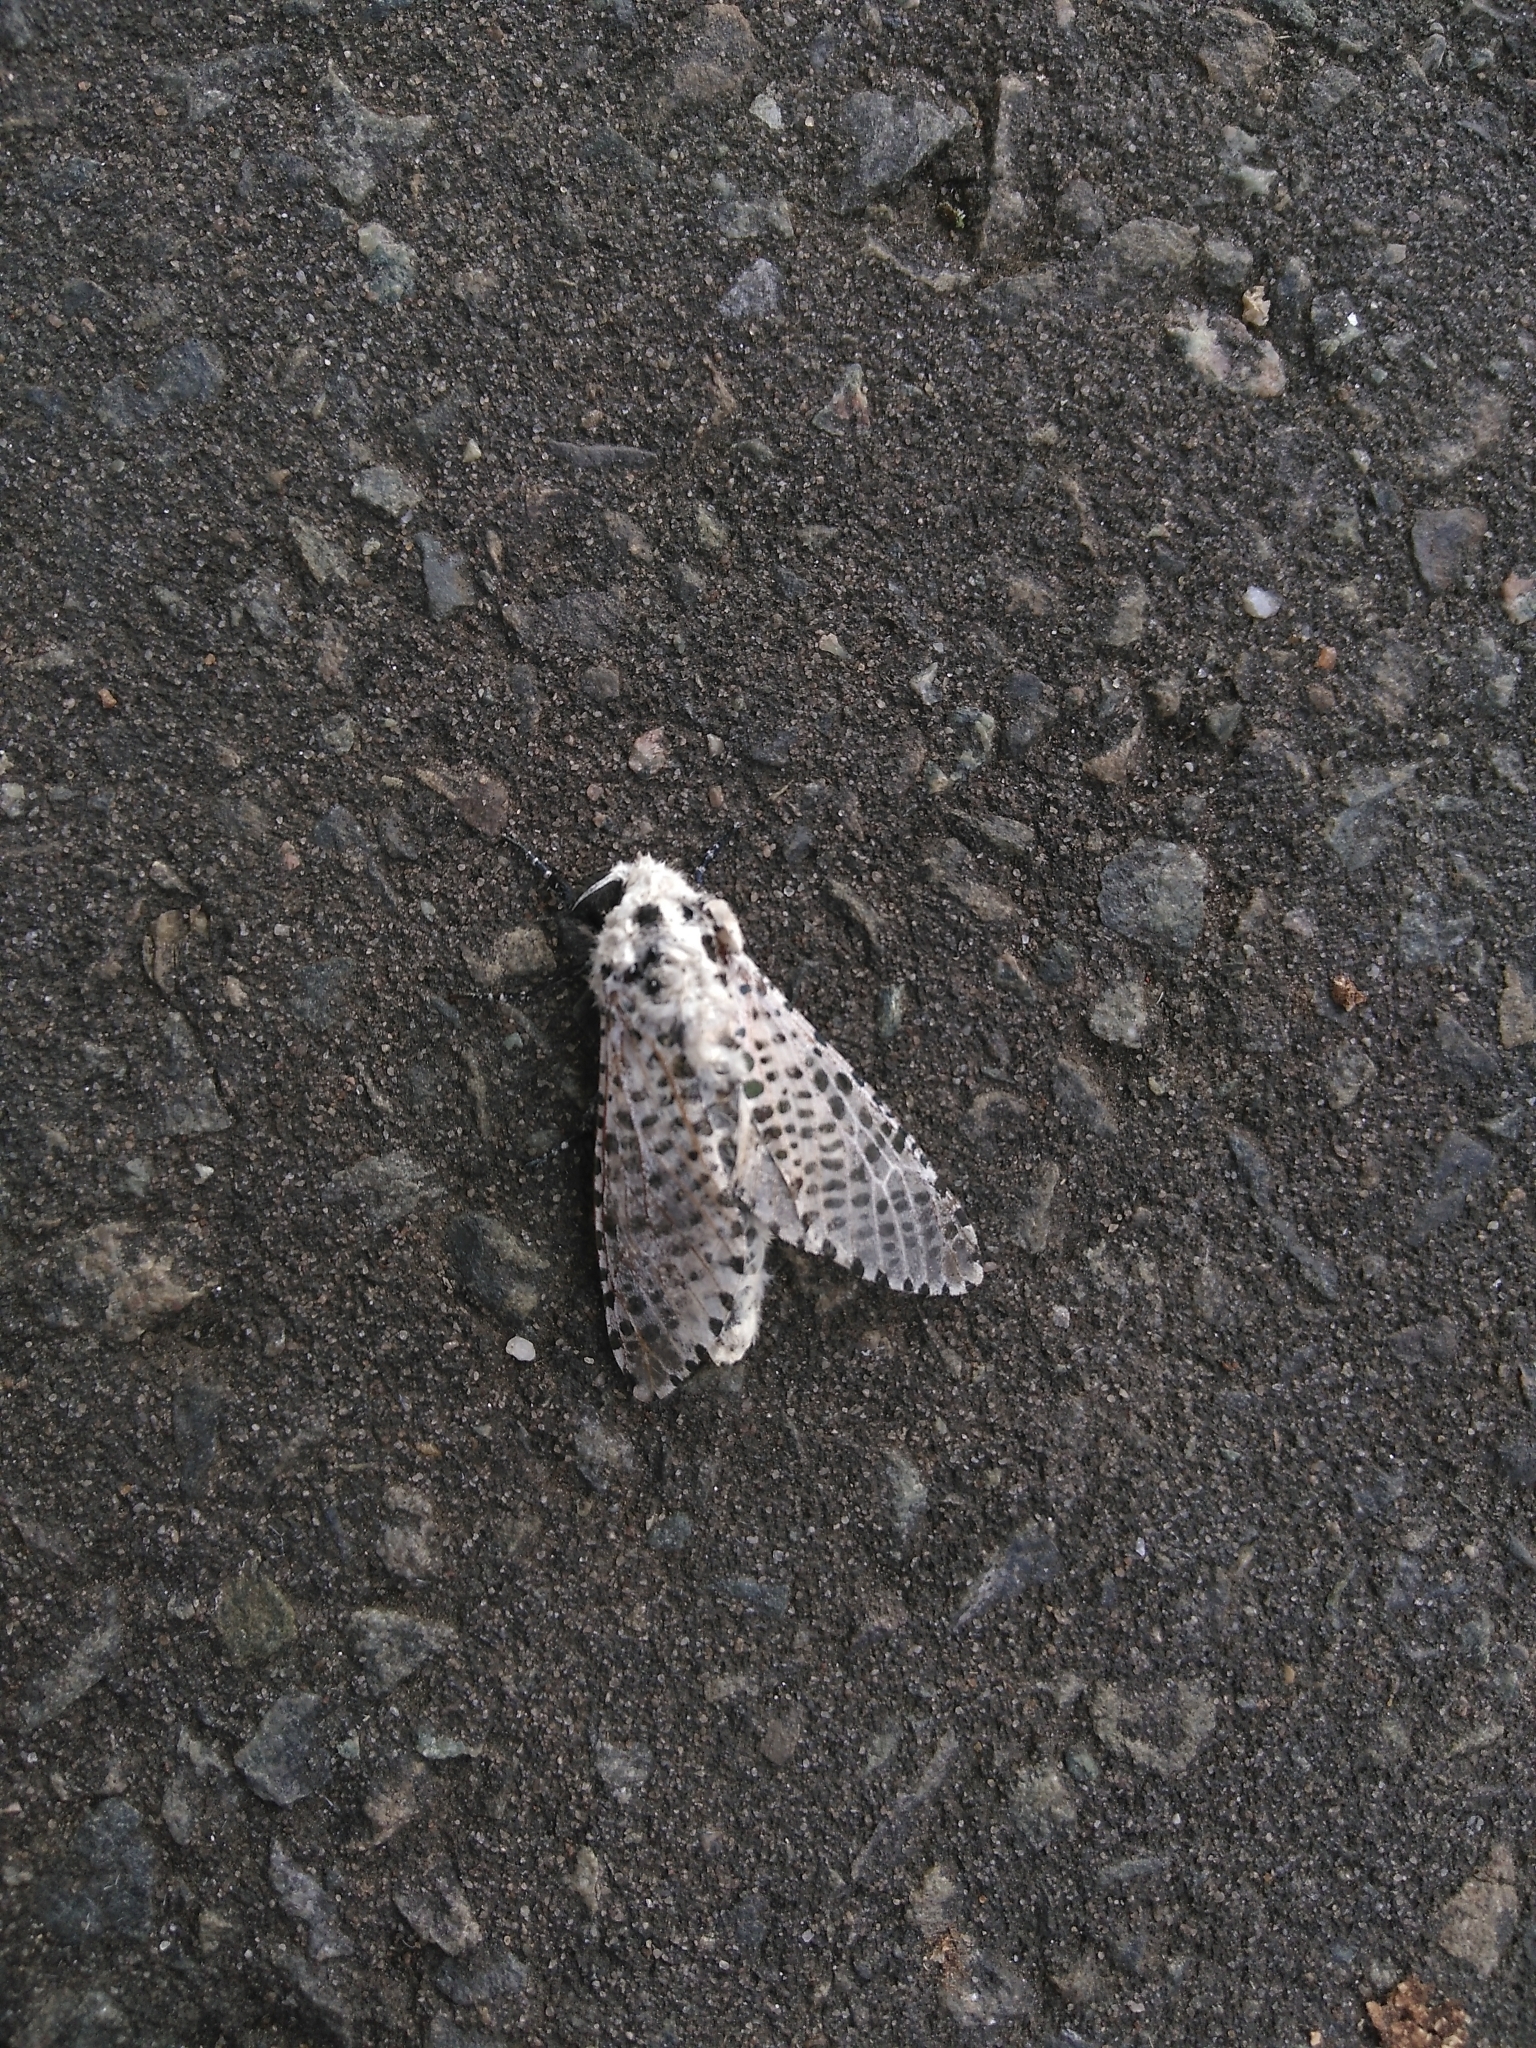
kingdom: Animalia
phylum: Arthropoda
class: Insecta
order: Lepidoptera
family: Cossidae
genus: Zeuzera
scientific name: Zeuzera pyrina
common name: Leopard moth
